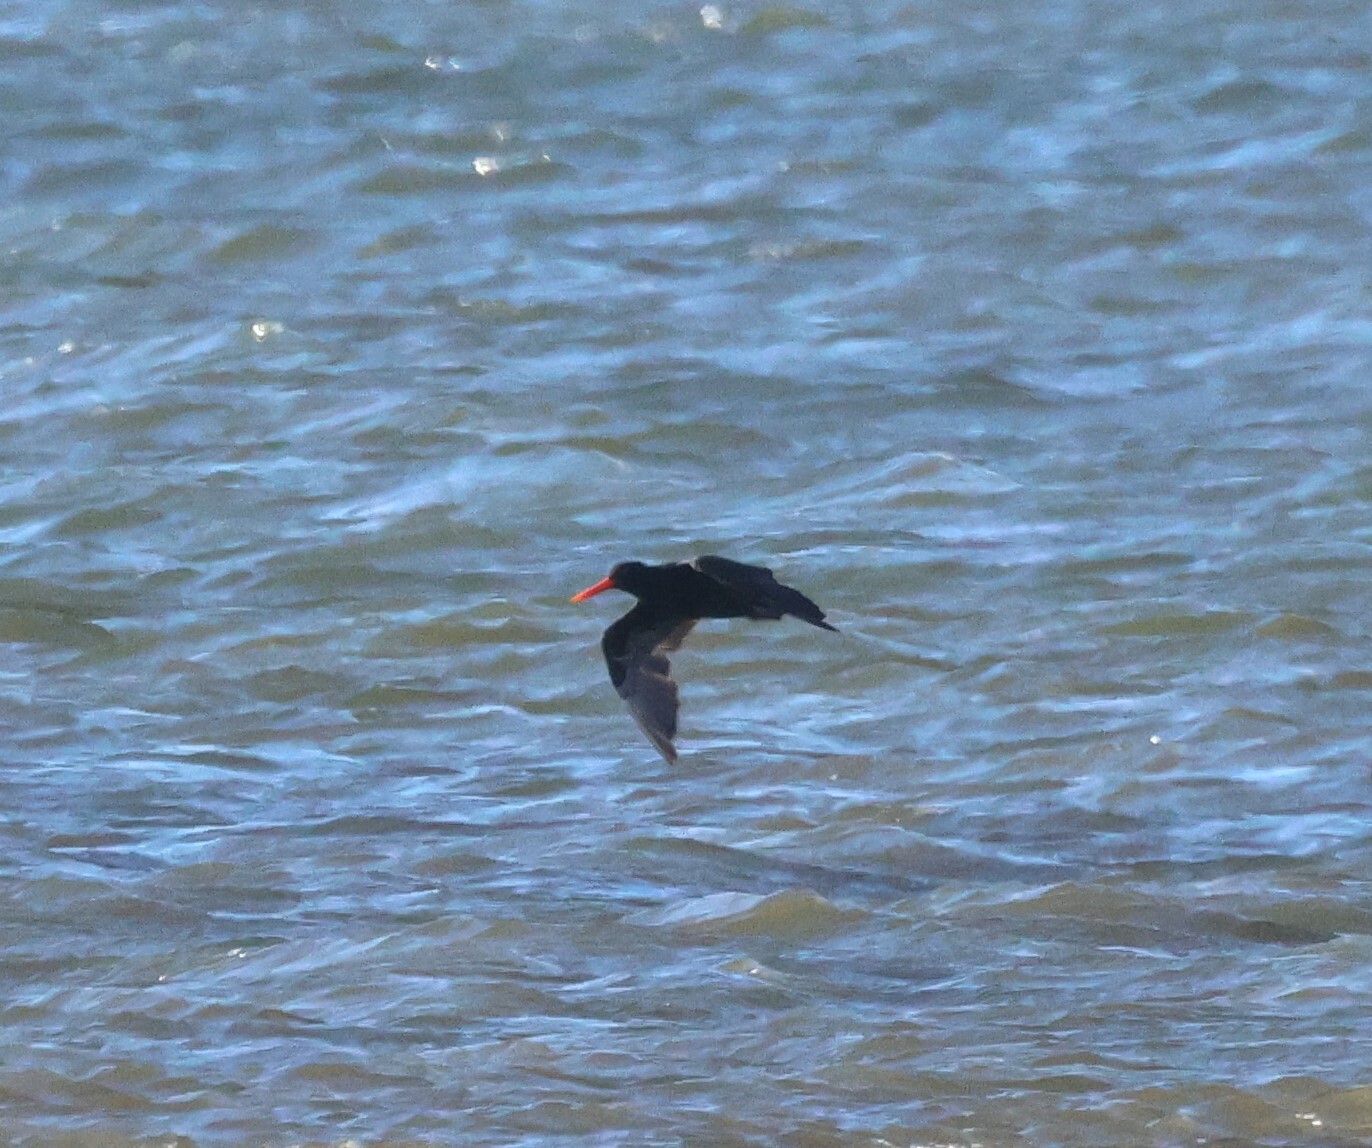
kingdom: Animalia
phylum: Chordata
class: Aves
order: Charadriiformes
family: Haematopodidae
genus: Haematopus
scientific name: Haematopus moquini
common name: African oystercatcher
